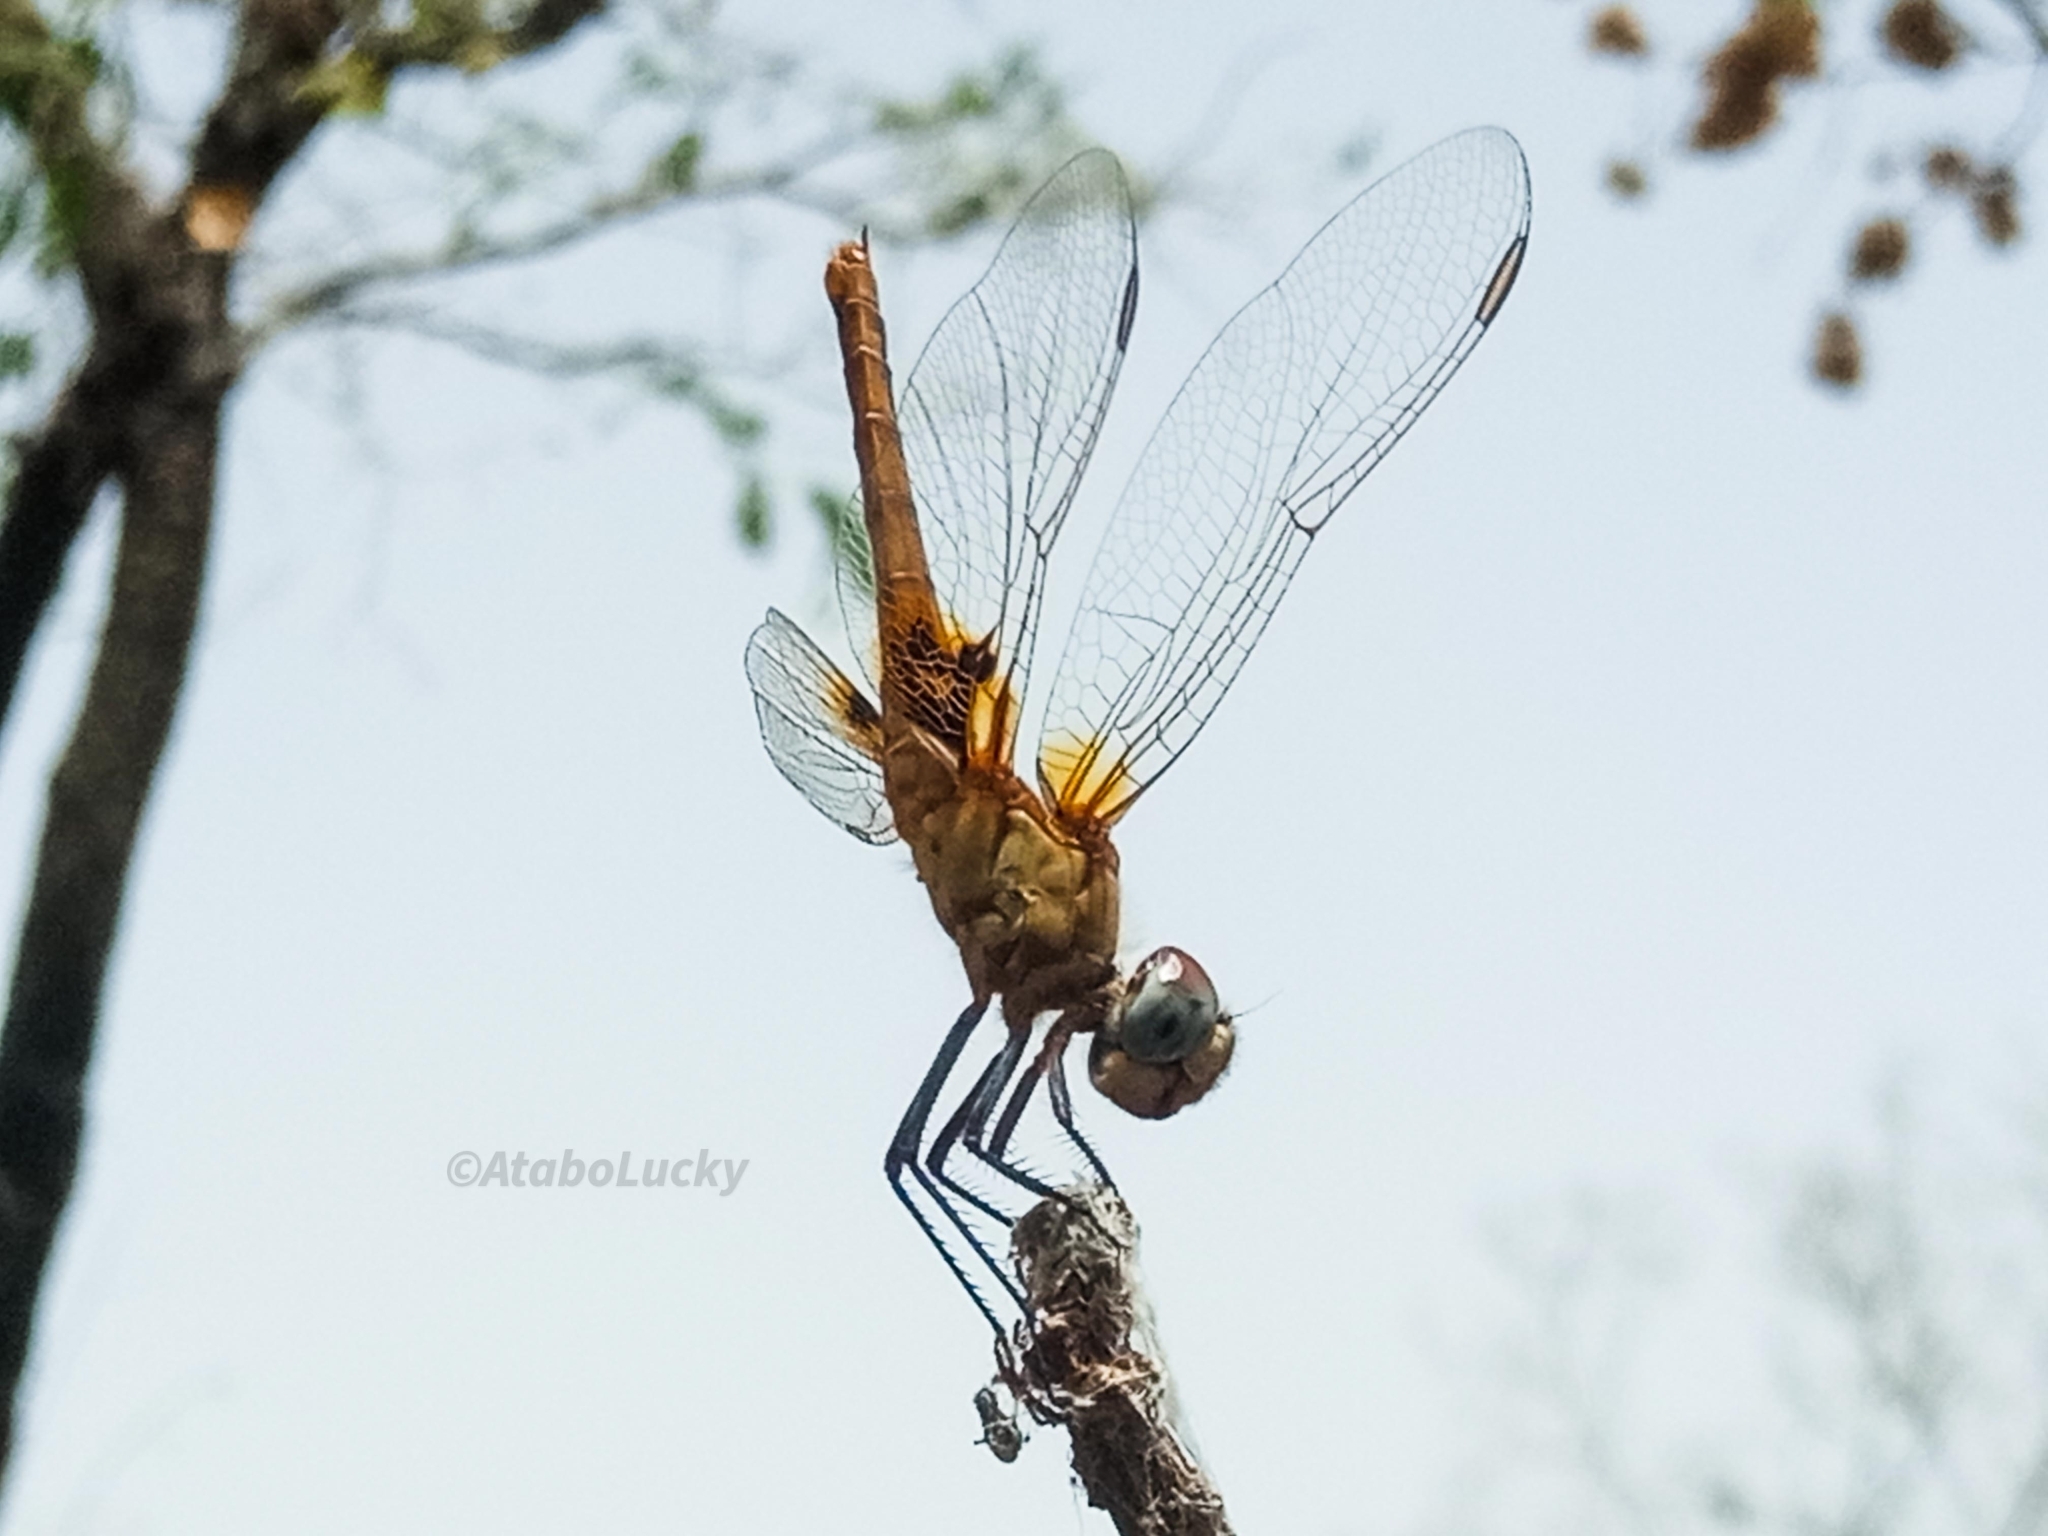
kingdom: Animalia
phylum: Arthropoda
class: Insecta
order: Odonata
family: Libellulidae
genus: Urothemis
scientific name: Urothemis assignata
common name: Red basker
